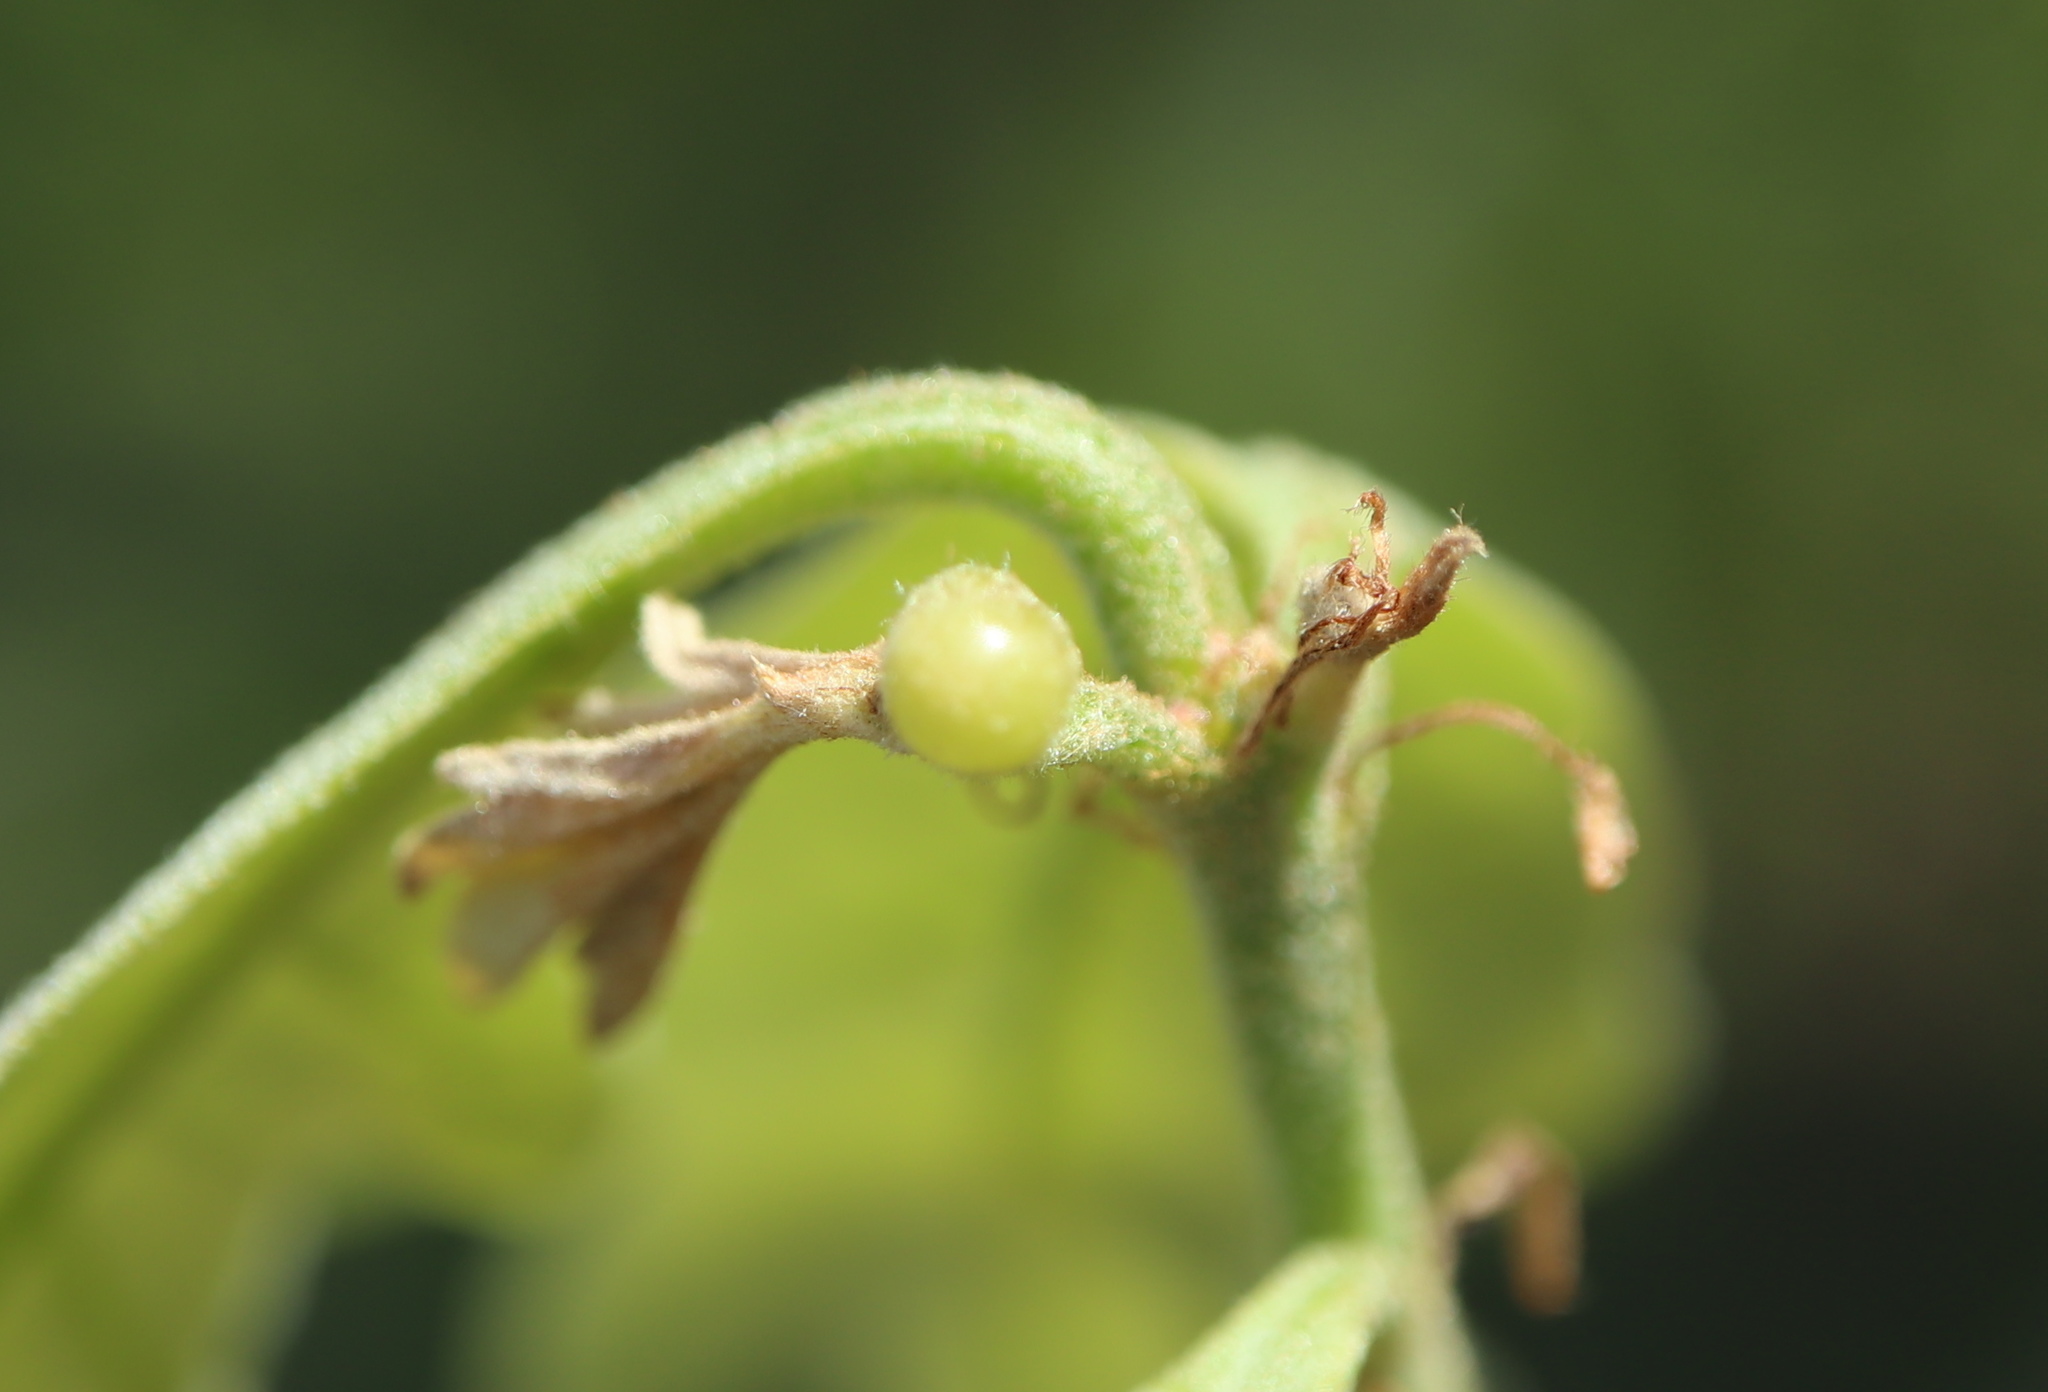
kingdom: Animalia
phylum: Arthropoda
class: Insecta
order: Hymenoptera
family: Cynipidae
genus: Andricus
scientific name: Andricus
